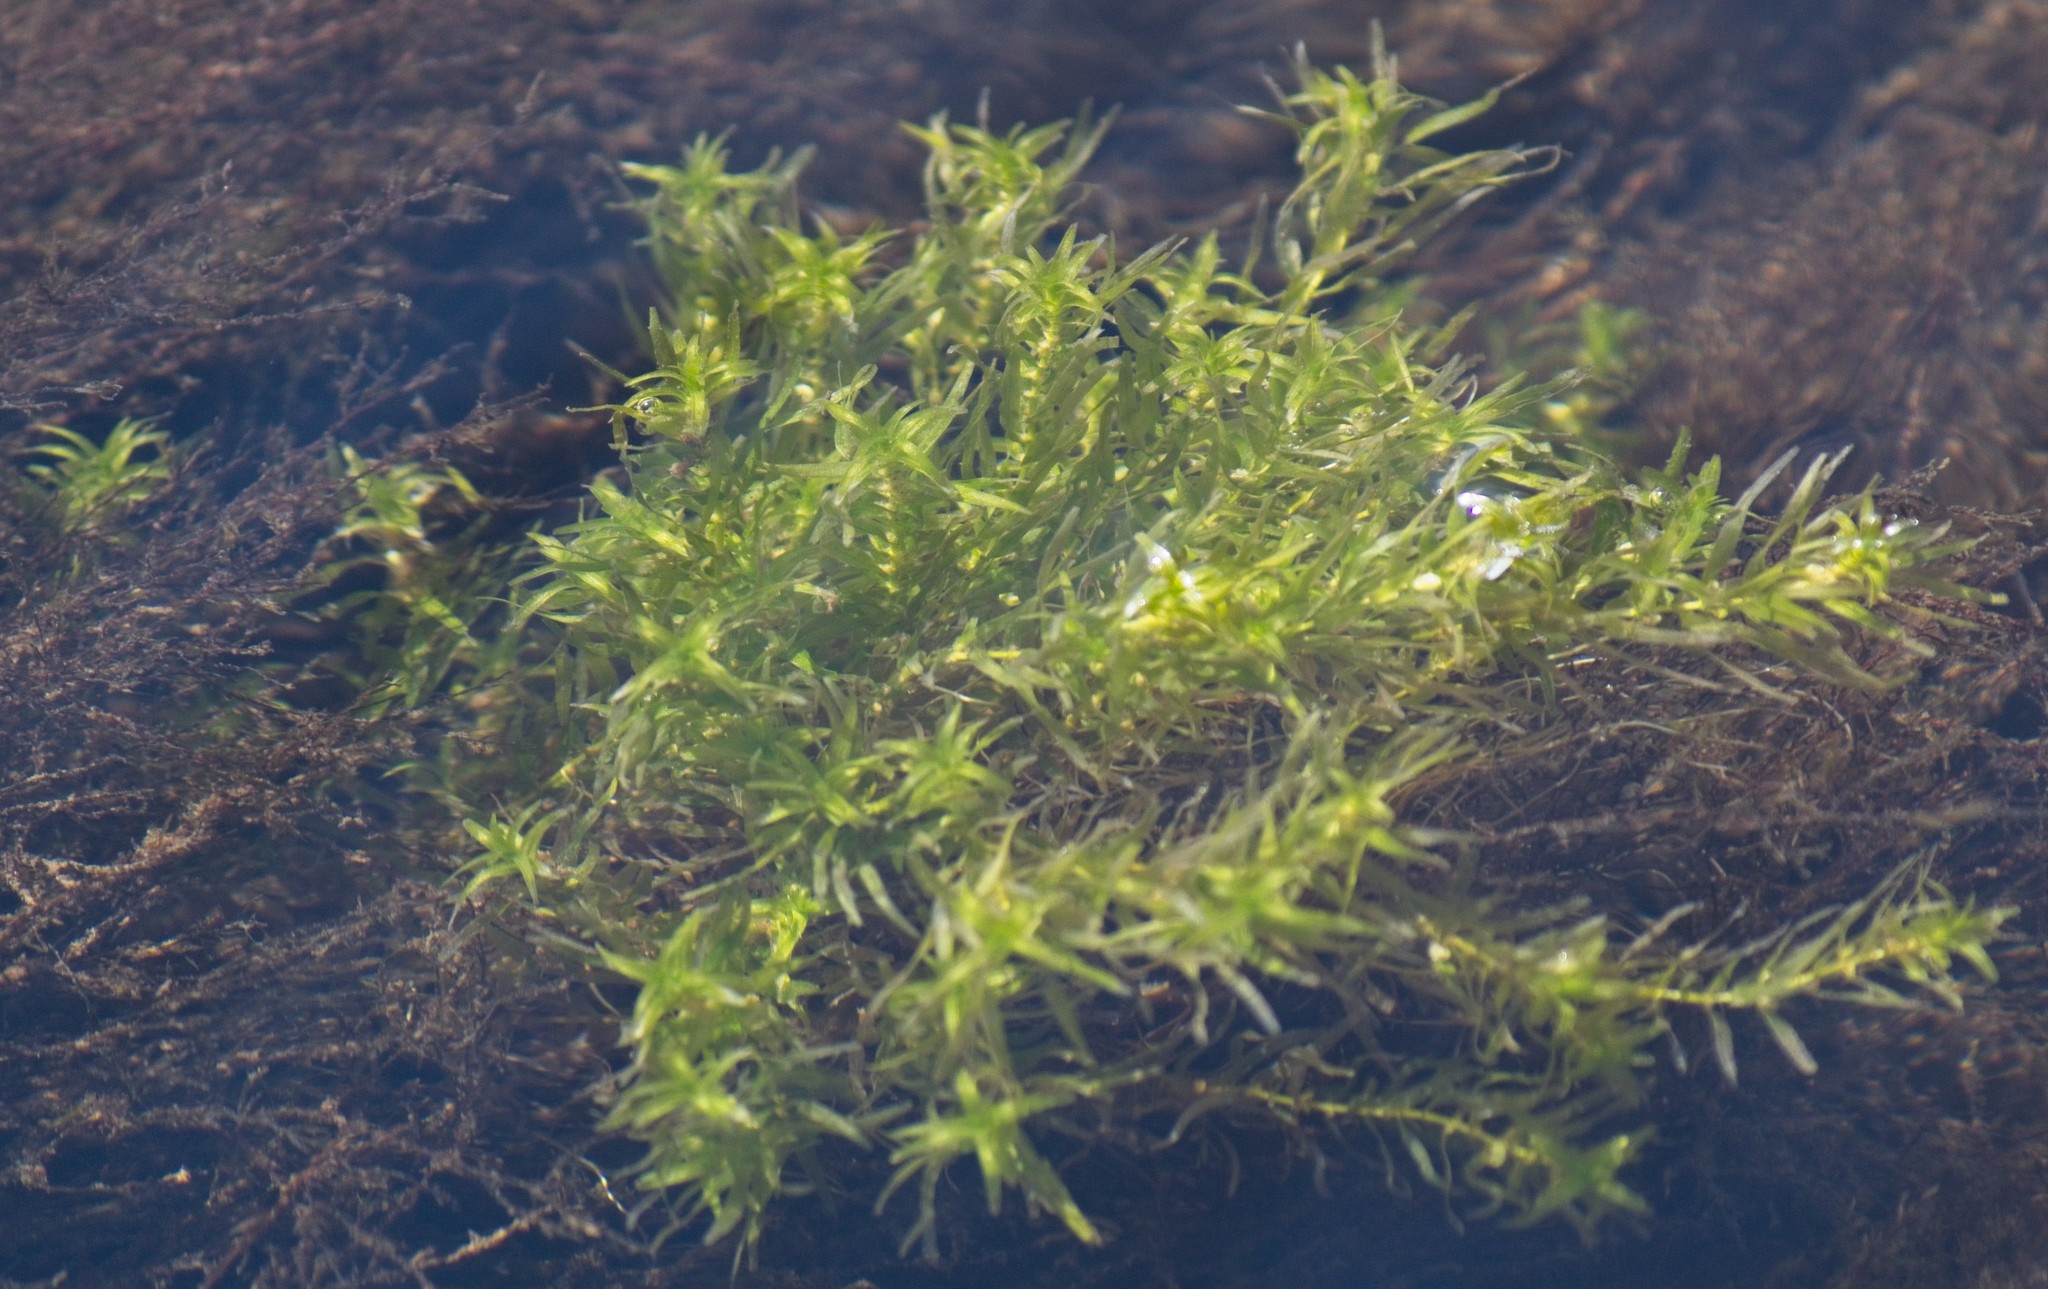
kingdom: Plantae
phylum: Tracheophyta
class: Liliopsida
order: Alismatales
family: Hydrocharitaceae
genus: Elodea
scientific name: Elodea densa
